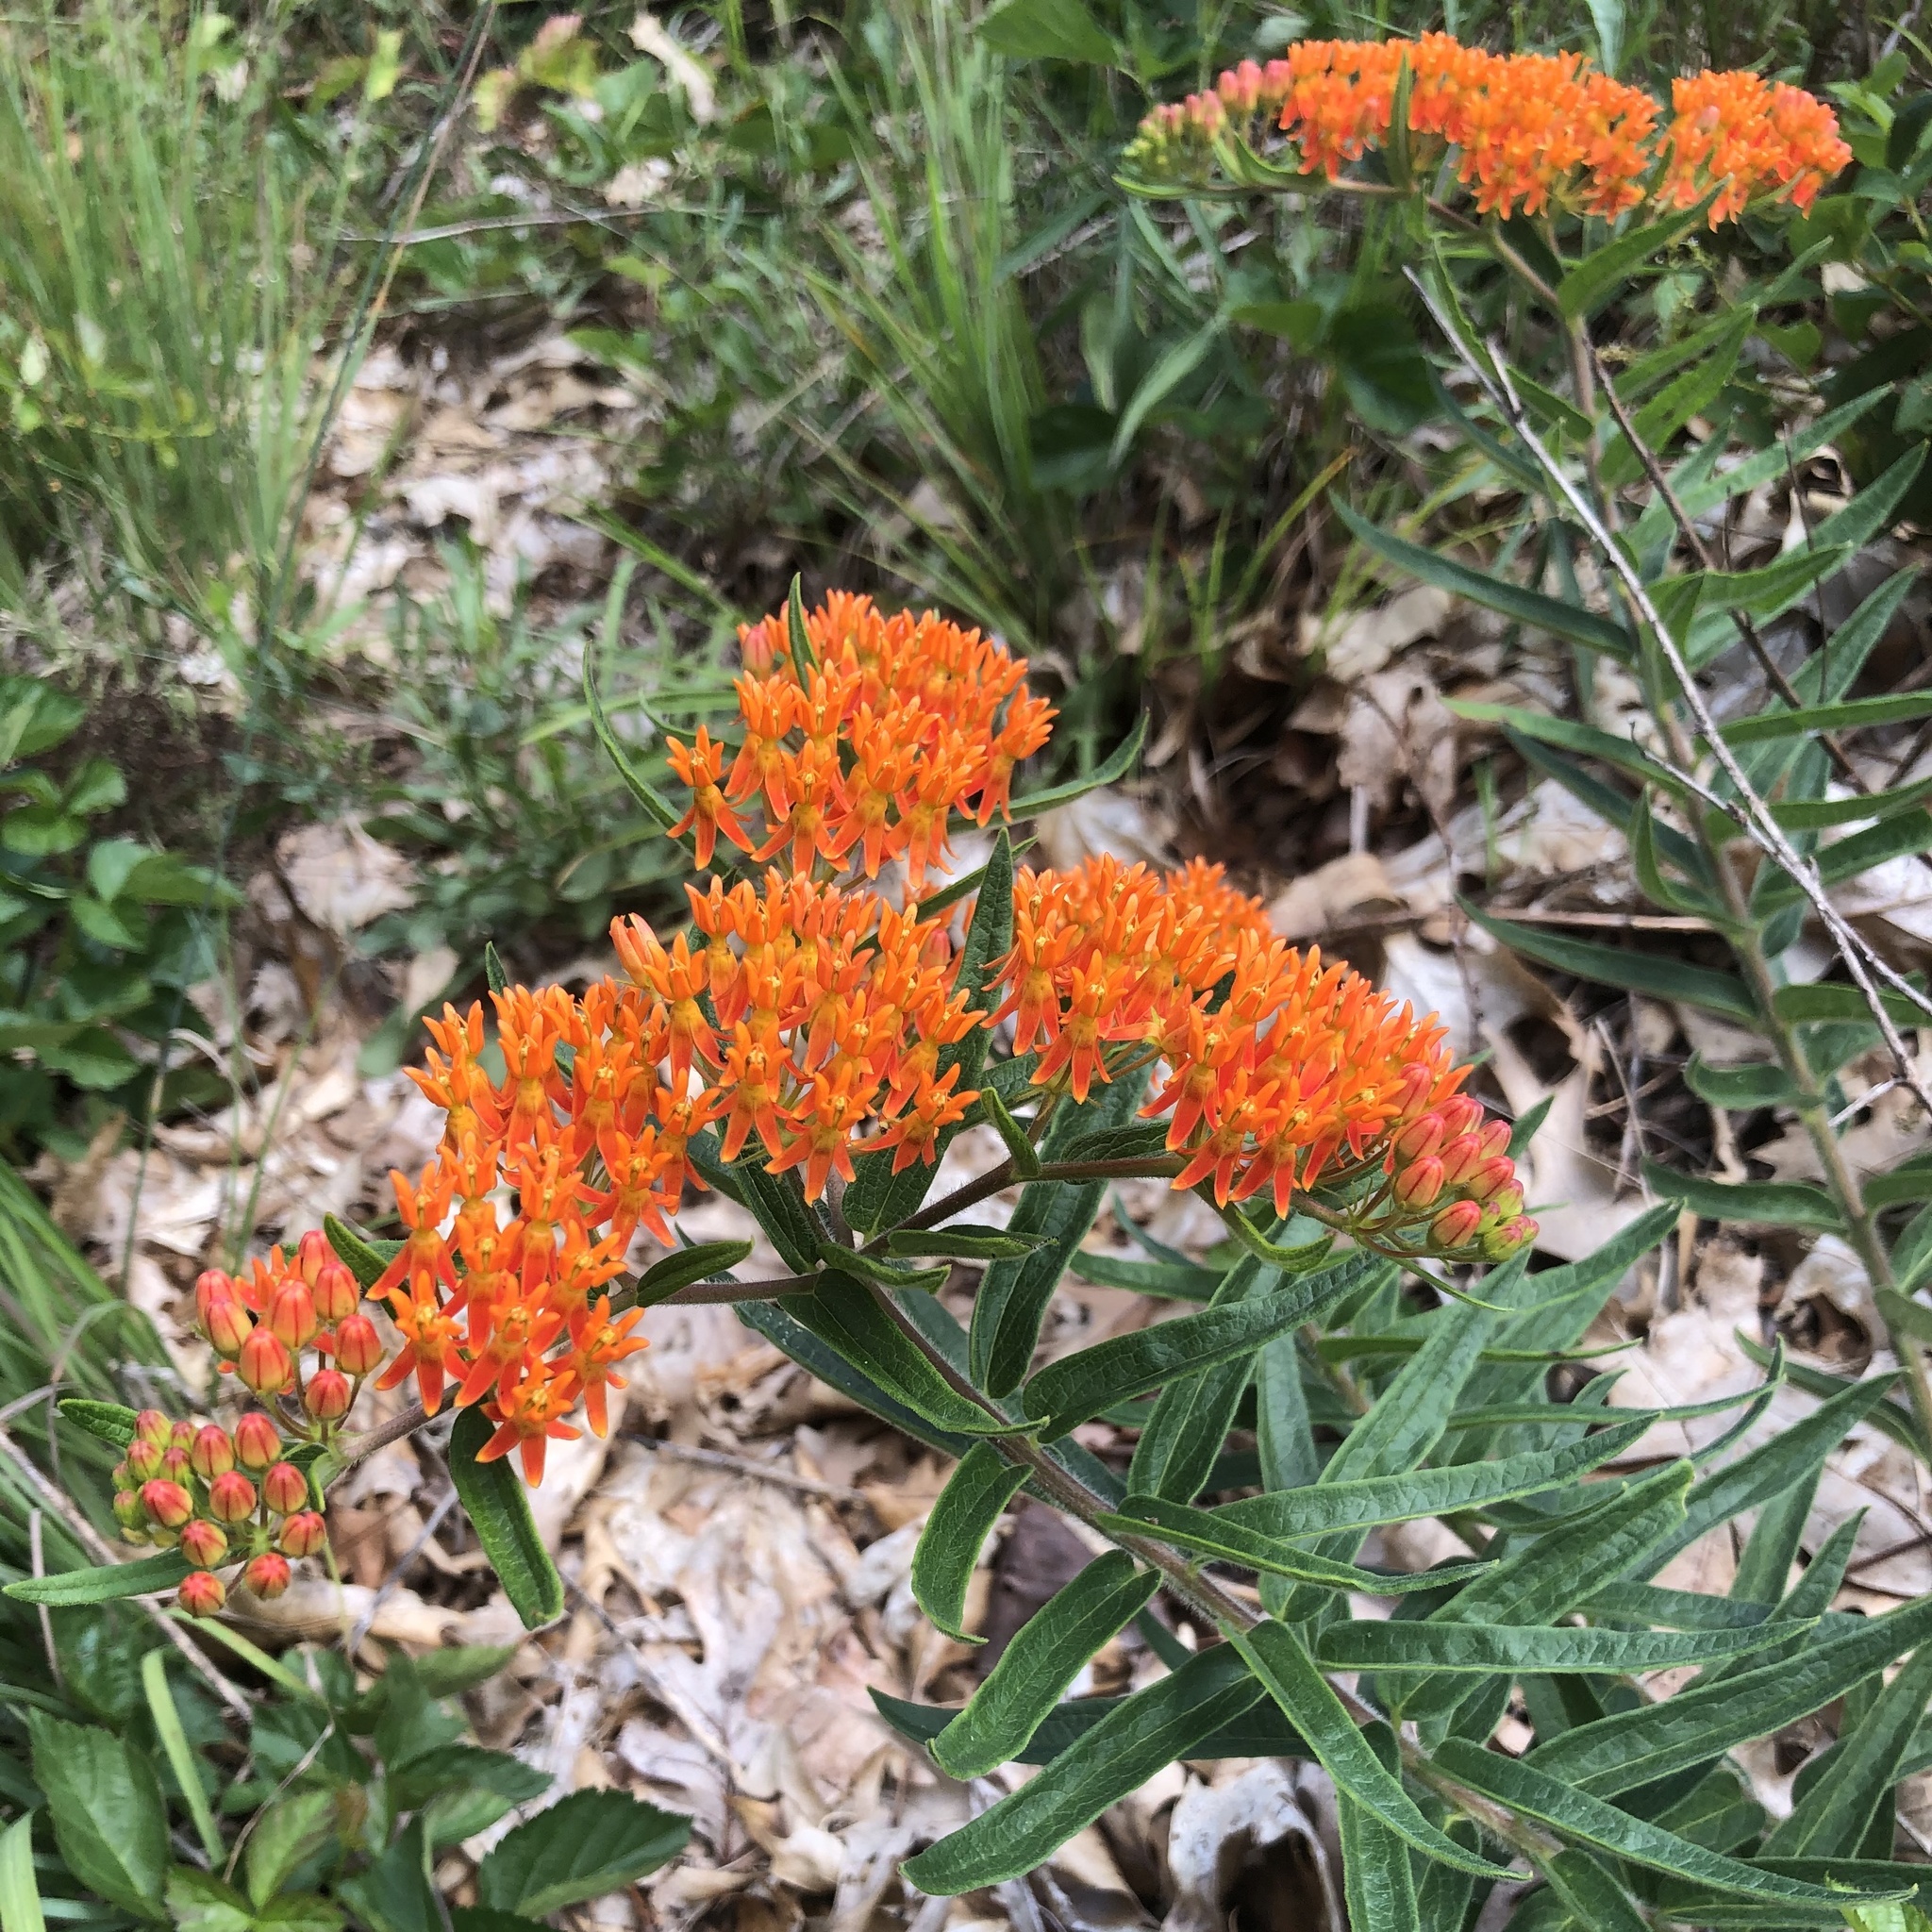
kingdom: Plantae
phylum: Tracheophyta
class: Magnoliopsida
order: Gentianales
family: Apocynaceae
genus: Asclepias
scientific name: Asclepias tuberosa
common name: Butterfly milkweed
